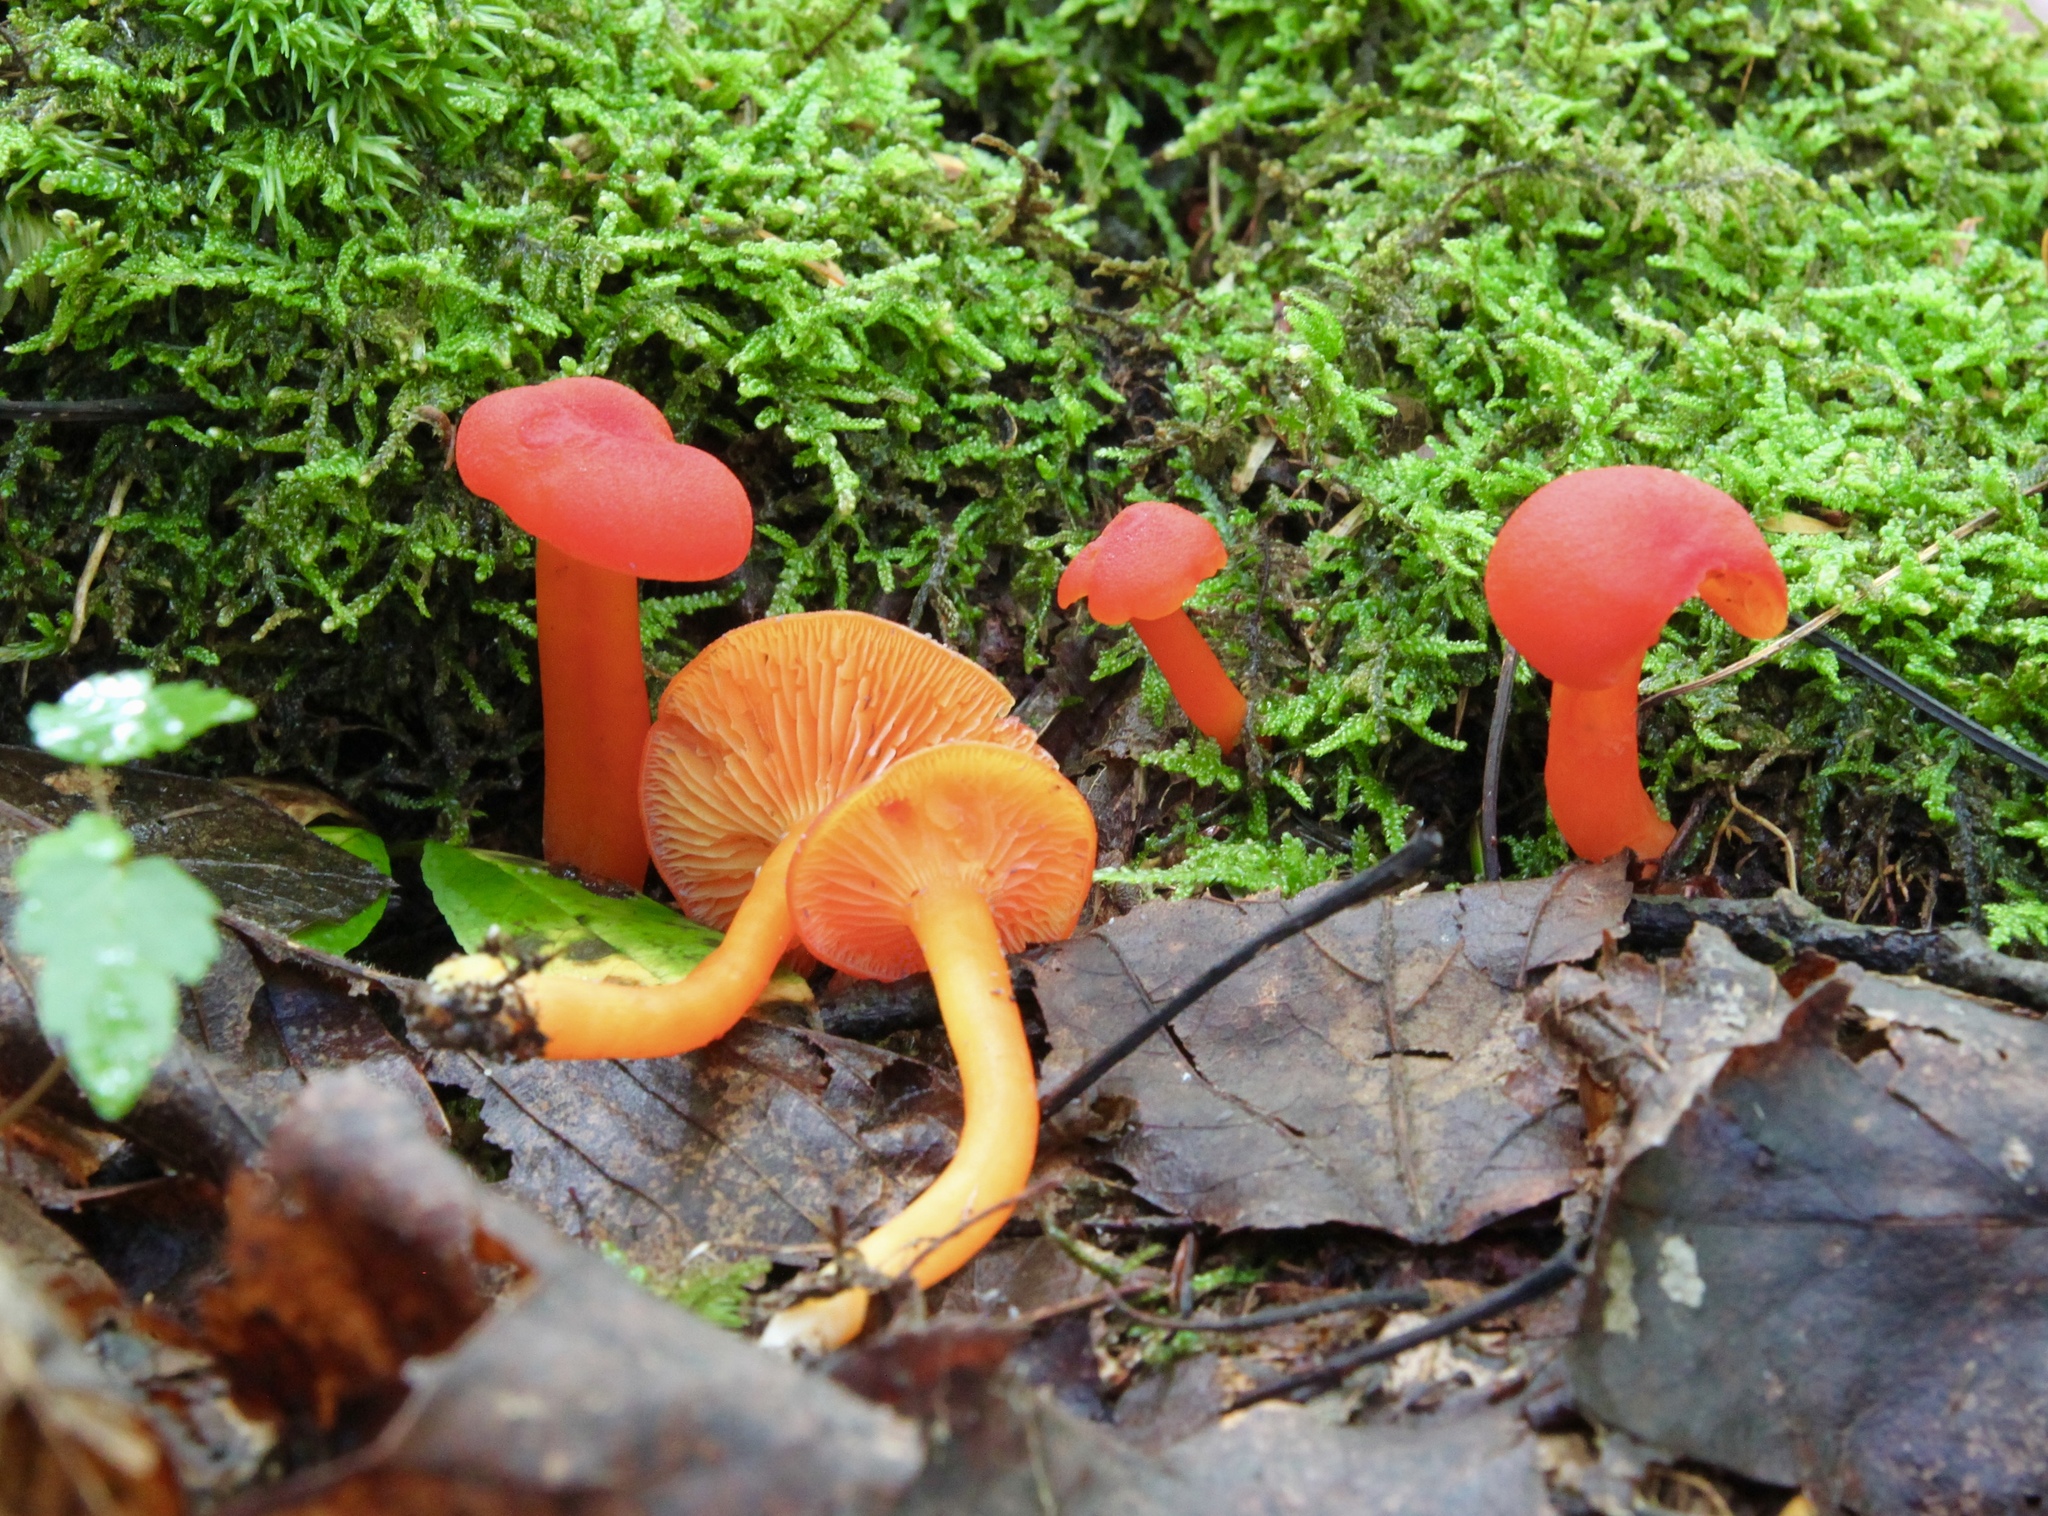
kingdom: Fungi
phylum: Basidiomycota
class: Agaricomycetes
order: Agaricales
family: Hygrophoraceae
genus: Hygrocybe
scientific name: Hygrocybe coccinea
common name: Scarlet hood
